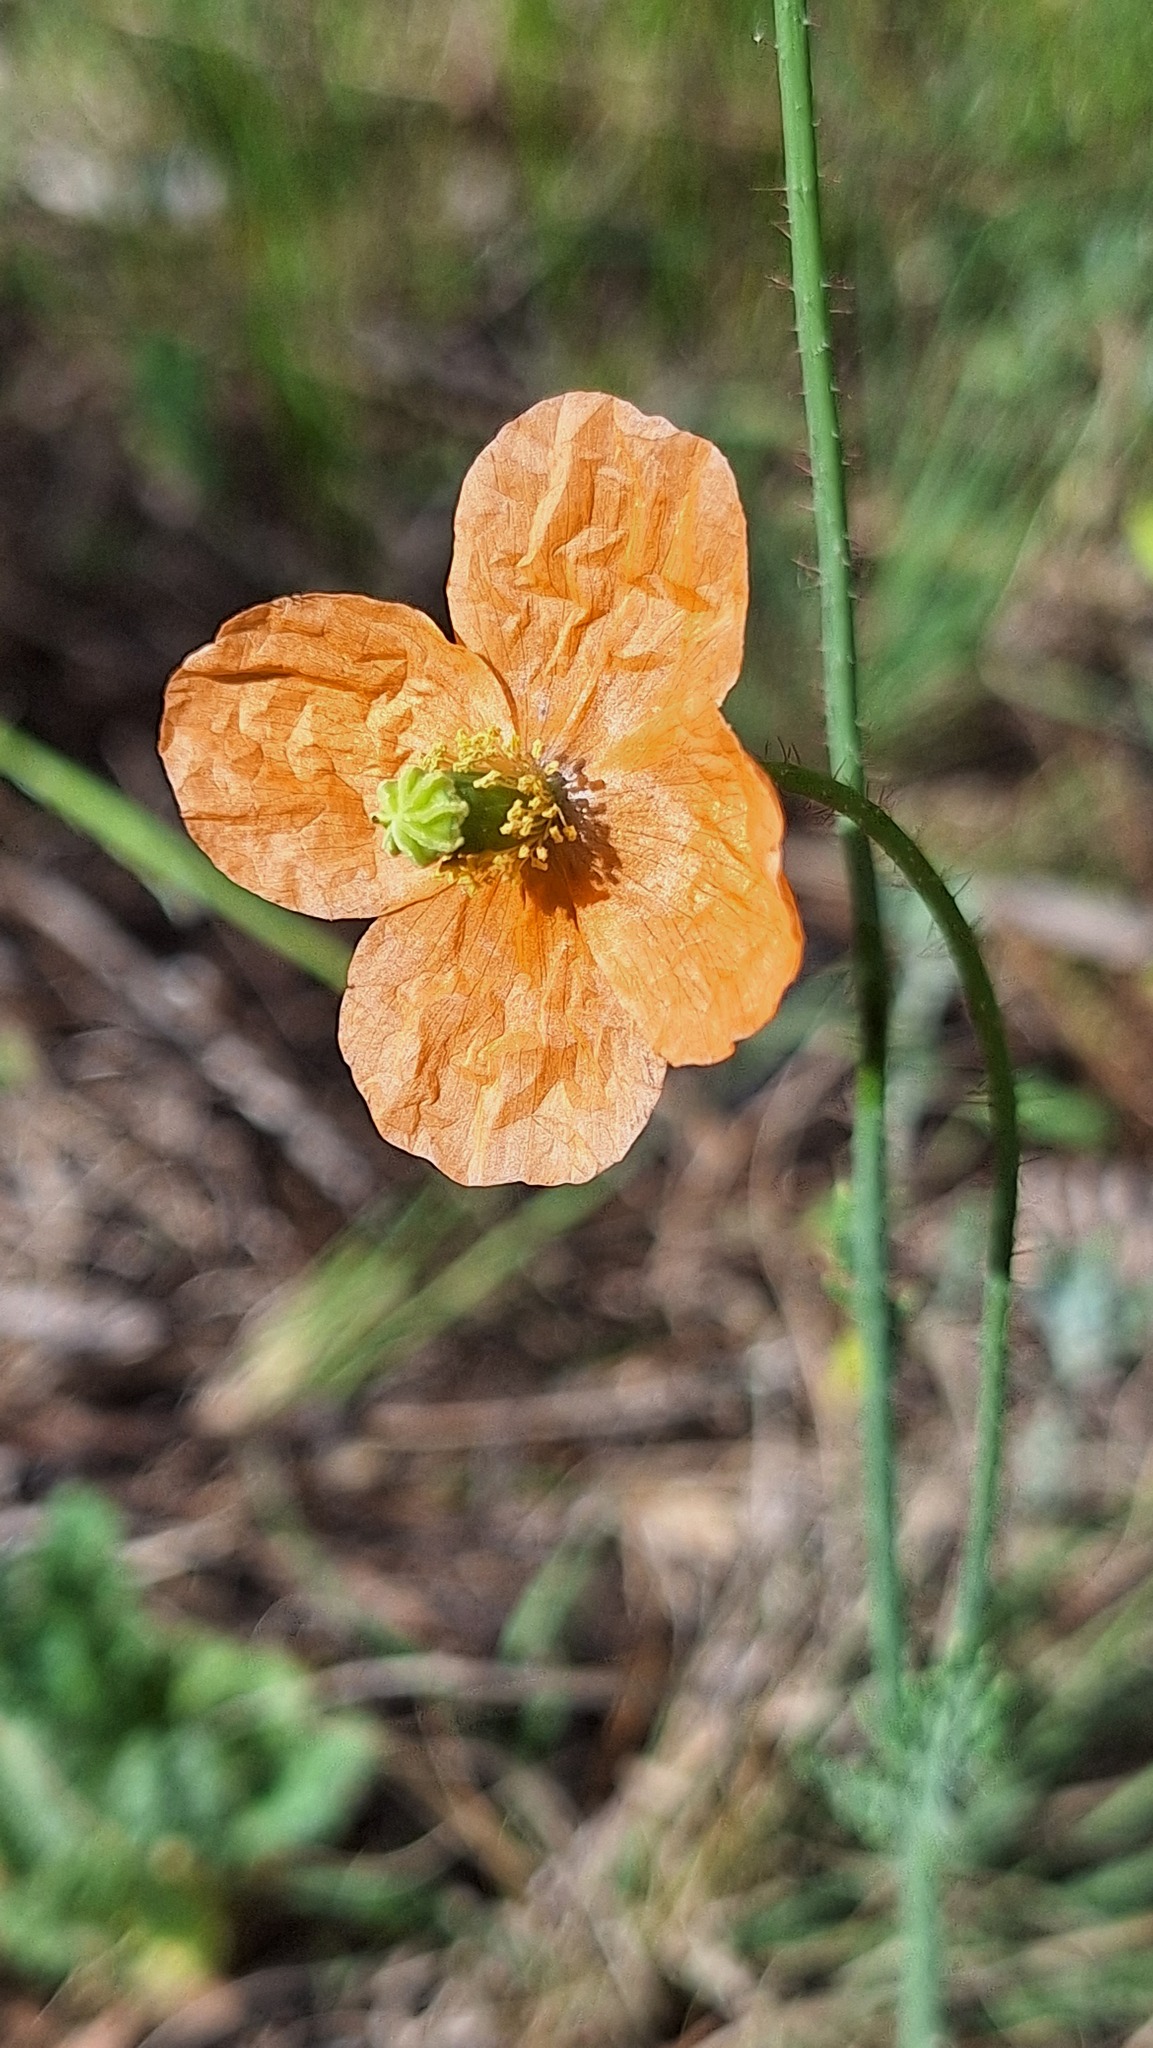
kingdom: Plantae
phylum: Tracheophyta
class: Magnoliopsida
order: Ranunculales
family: Papaveraceae
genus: Papaver
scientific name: Papaver aculeatum
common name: Bristle poppy
